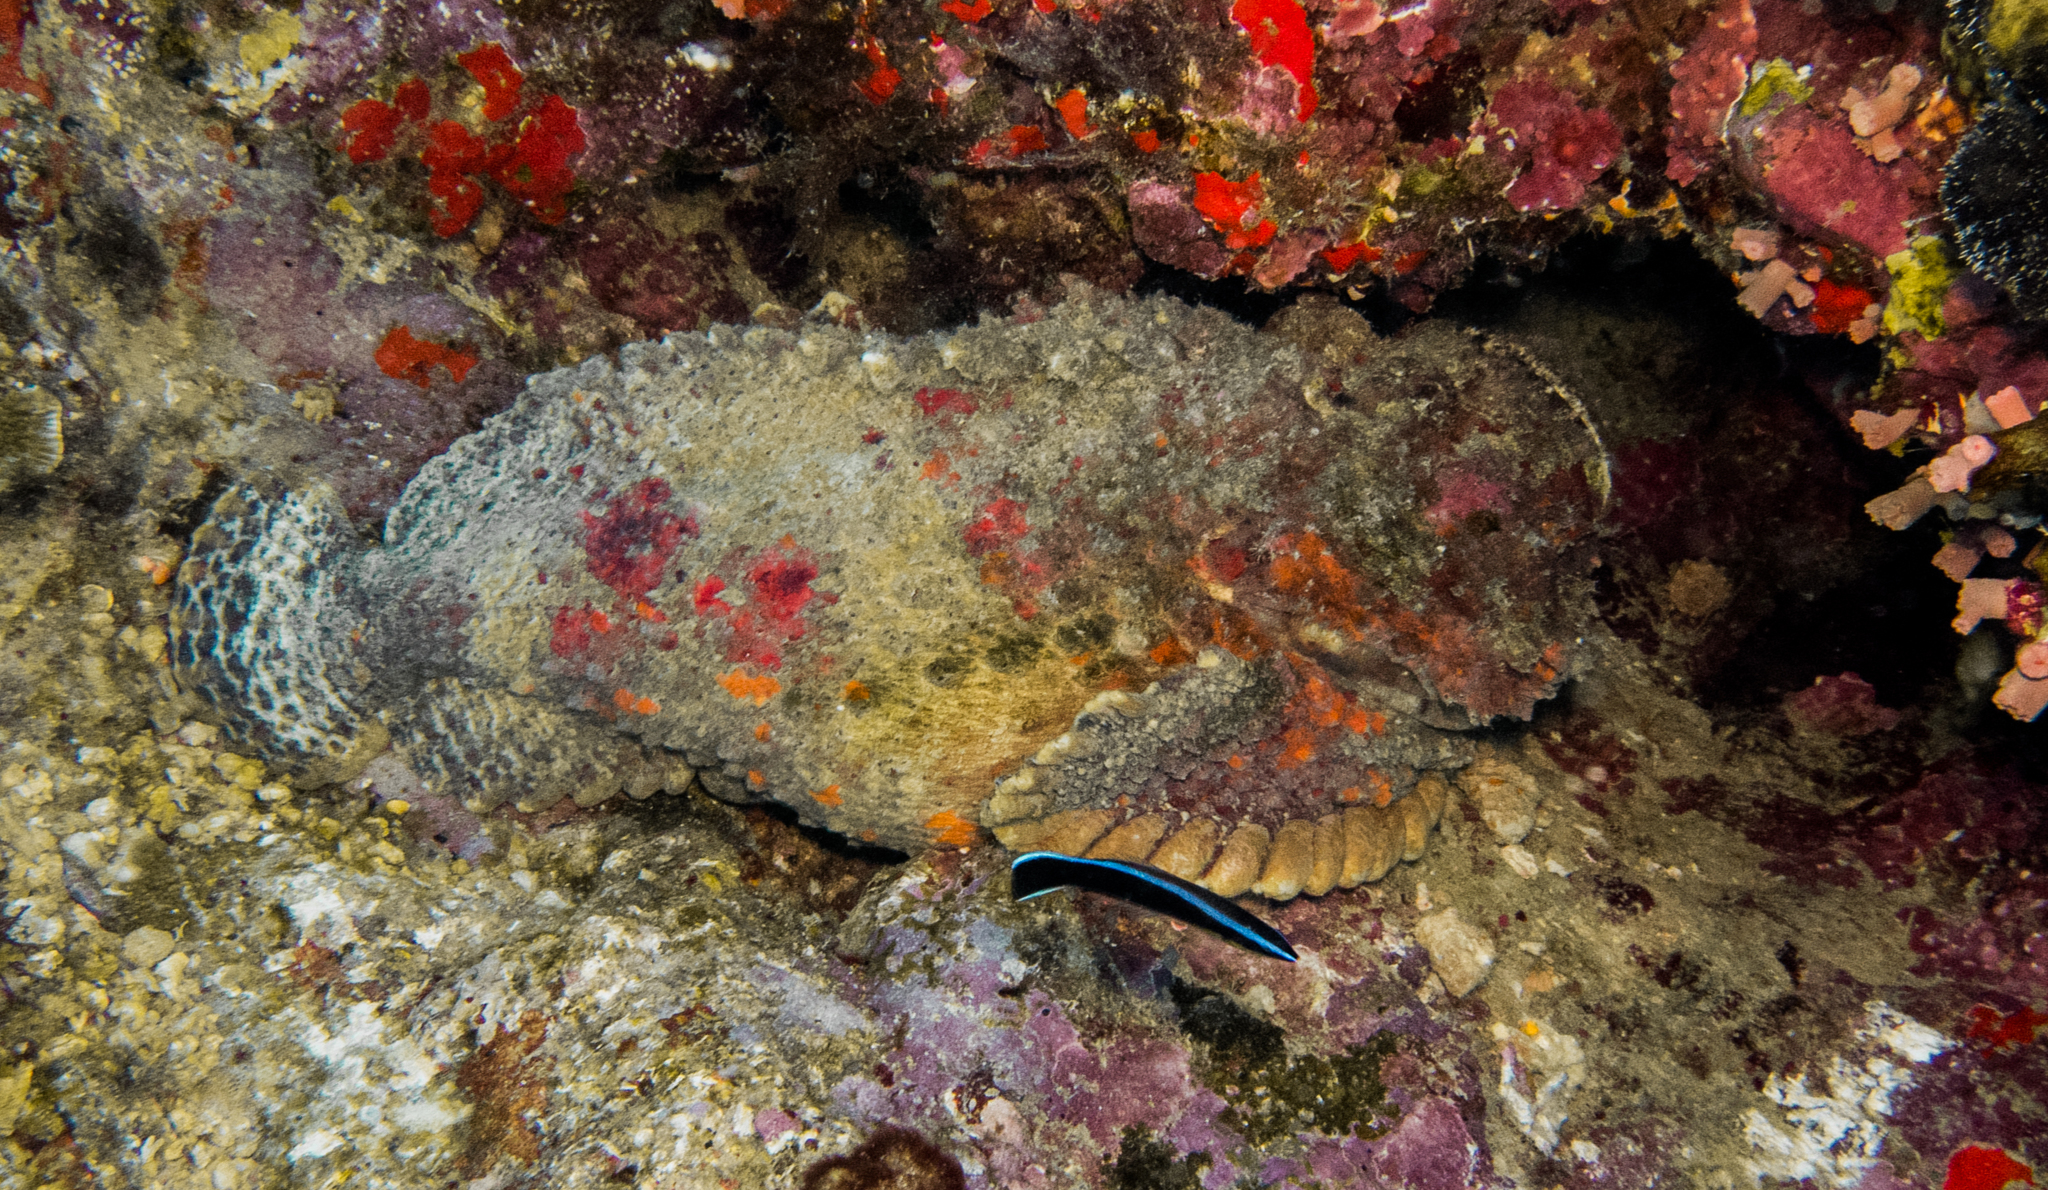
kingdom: Animalia
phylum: Chordata
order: Scorpaeniformes
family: Synanceiidae
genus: Synanceia
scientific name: Synanceia verrucosa
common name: Stonefish
